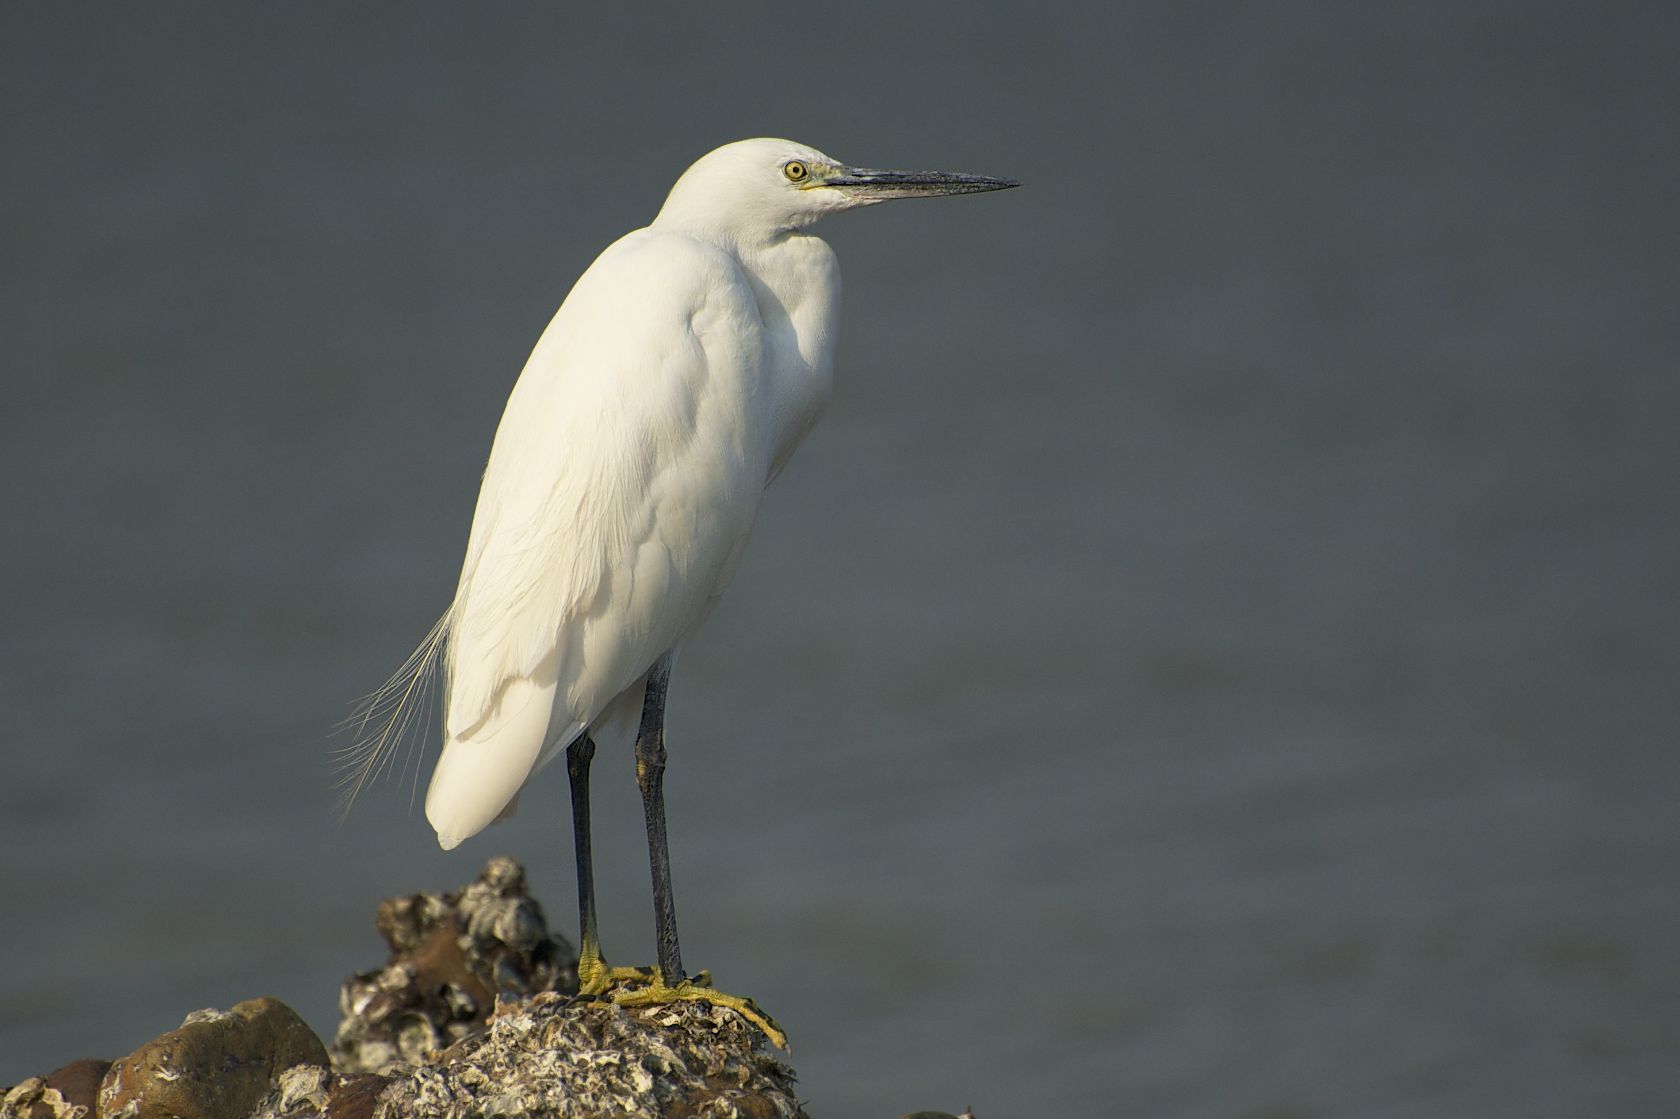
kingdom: Animalia
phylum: Chordata
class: Aves
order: Pelecaniformes
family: Ardeidae
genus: Egretta
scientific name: Egretta garzetta
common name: Little egret
